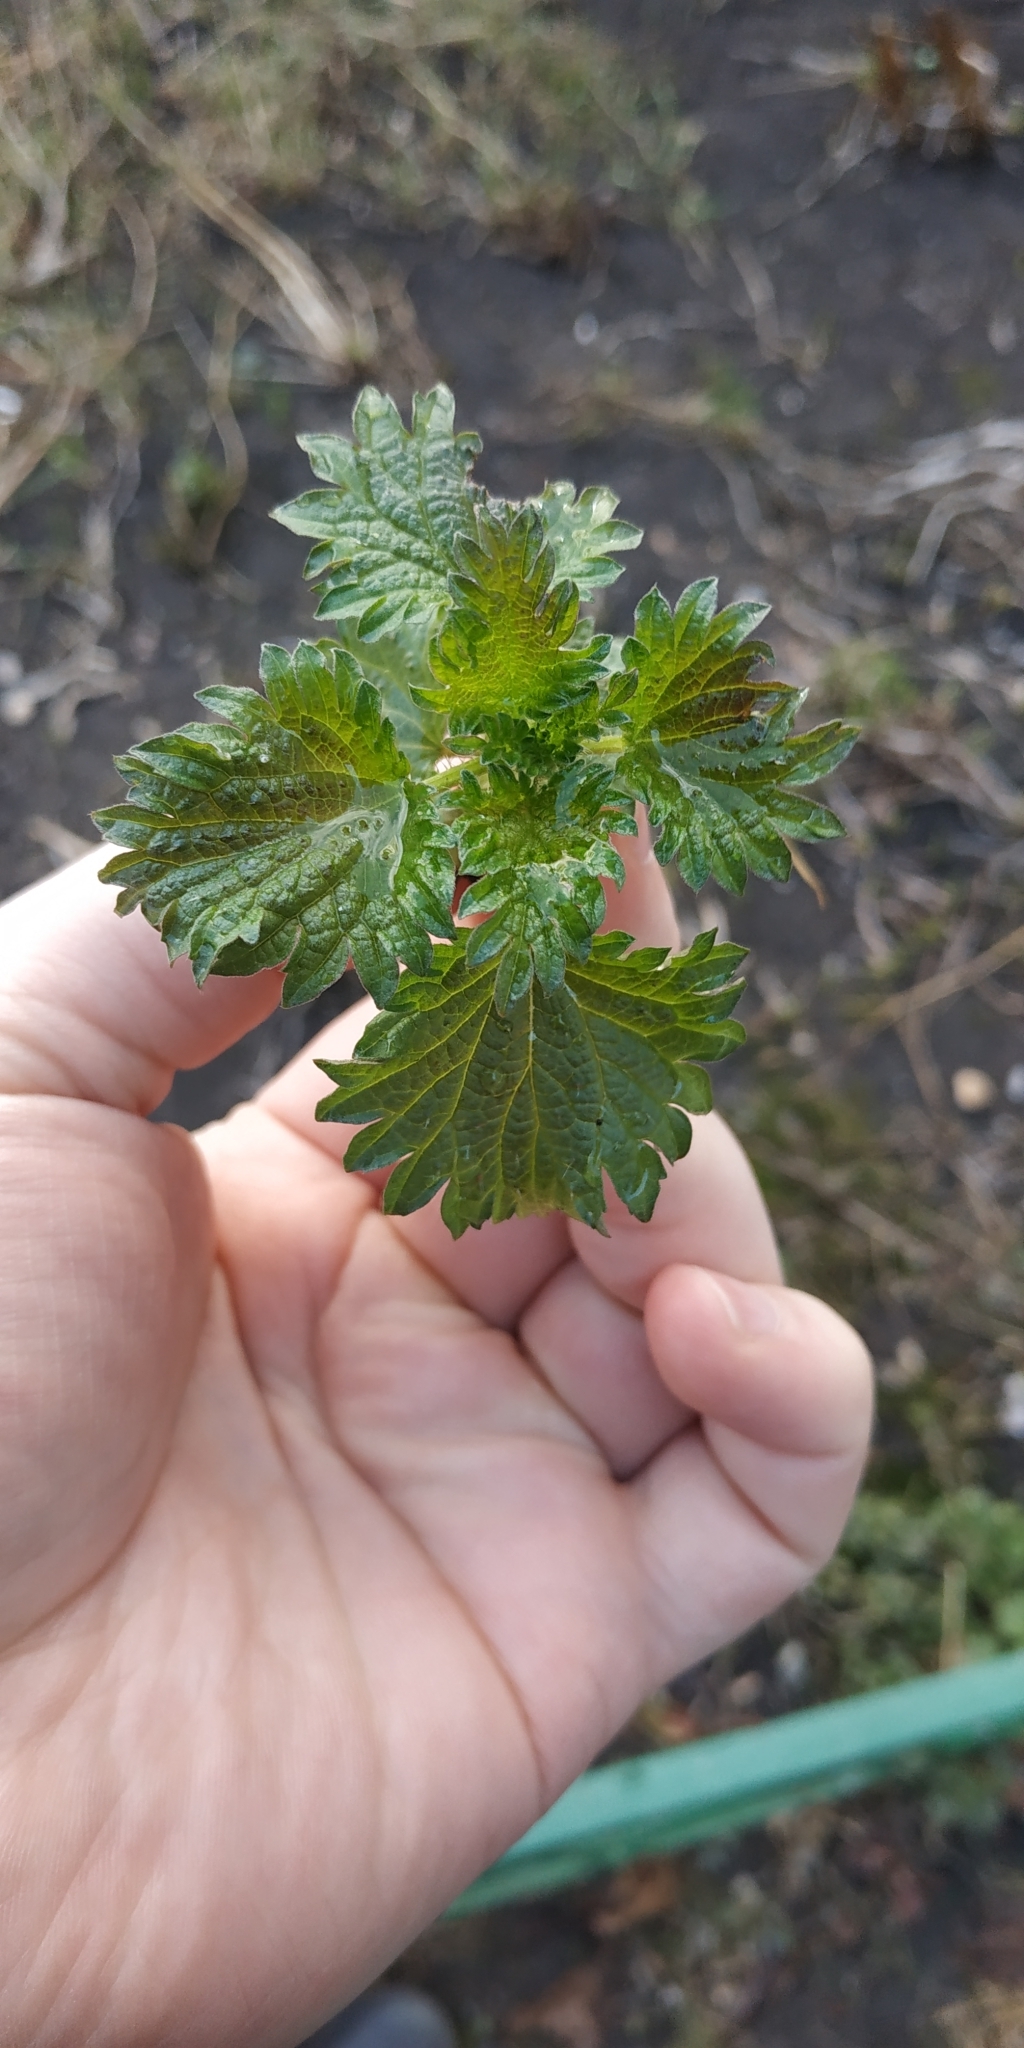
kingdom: Plantae
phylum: Tracheophyta
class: Magnoliopsida
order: Rosales
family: Urticaceae
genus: Urtica
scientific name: Urtica dioica
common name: Common nettle
